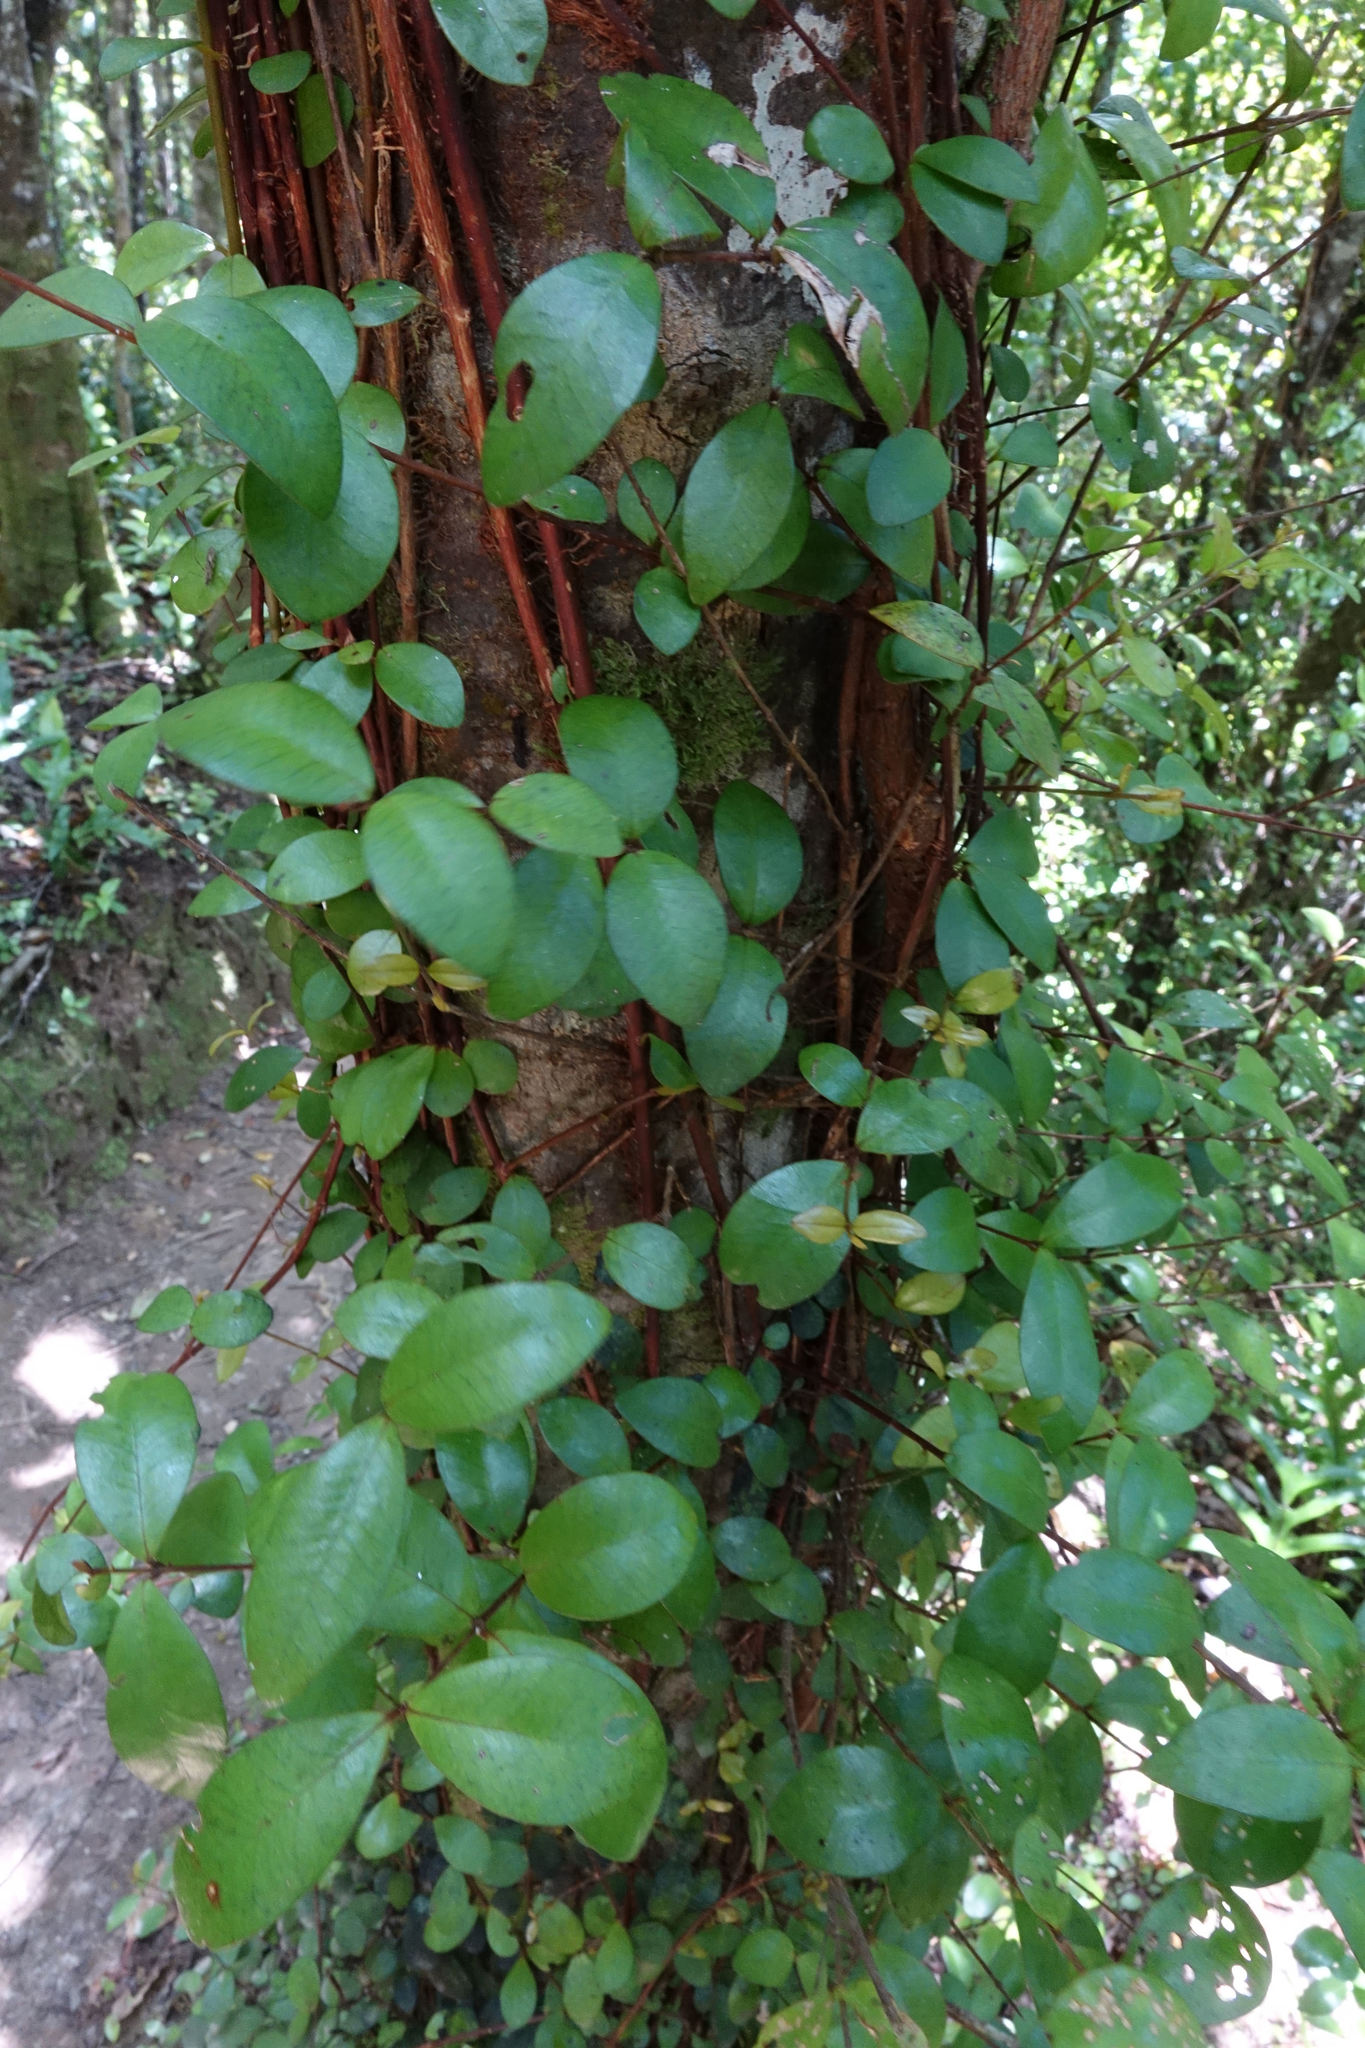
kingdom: Plantae
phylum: Tracheophyta
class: Magnoliopsida
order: Myrtales
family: Myrtaceae
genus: Metrosideros
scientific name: Metrosideros fulgens
